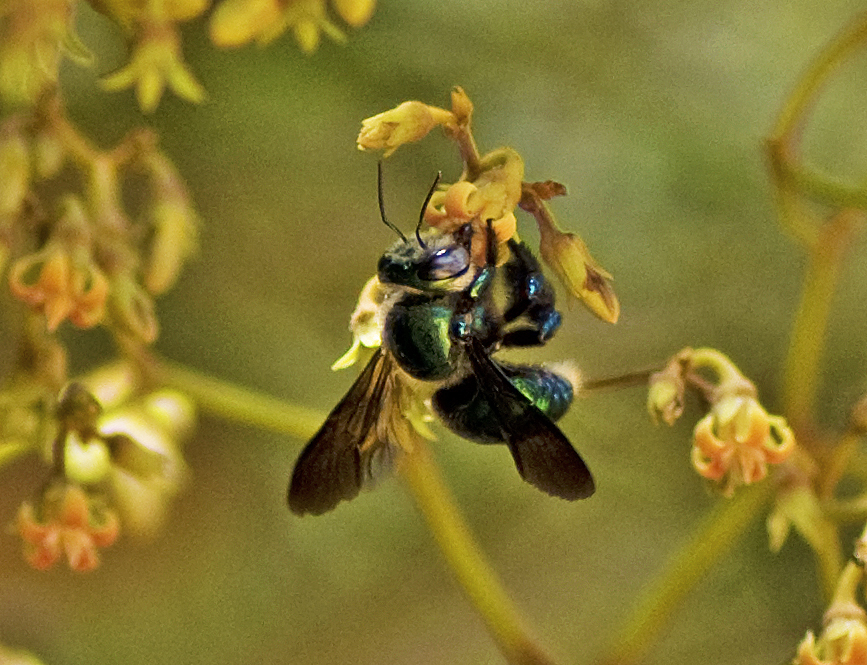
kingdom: Animalia
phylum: Arthropoda
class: Insecta
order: Hymenoptera
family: Apidae
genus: Xylocopa
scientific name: Xylocopa bombylans
